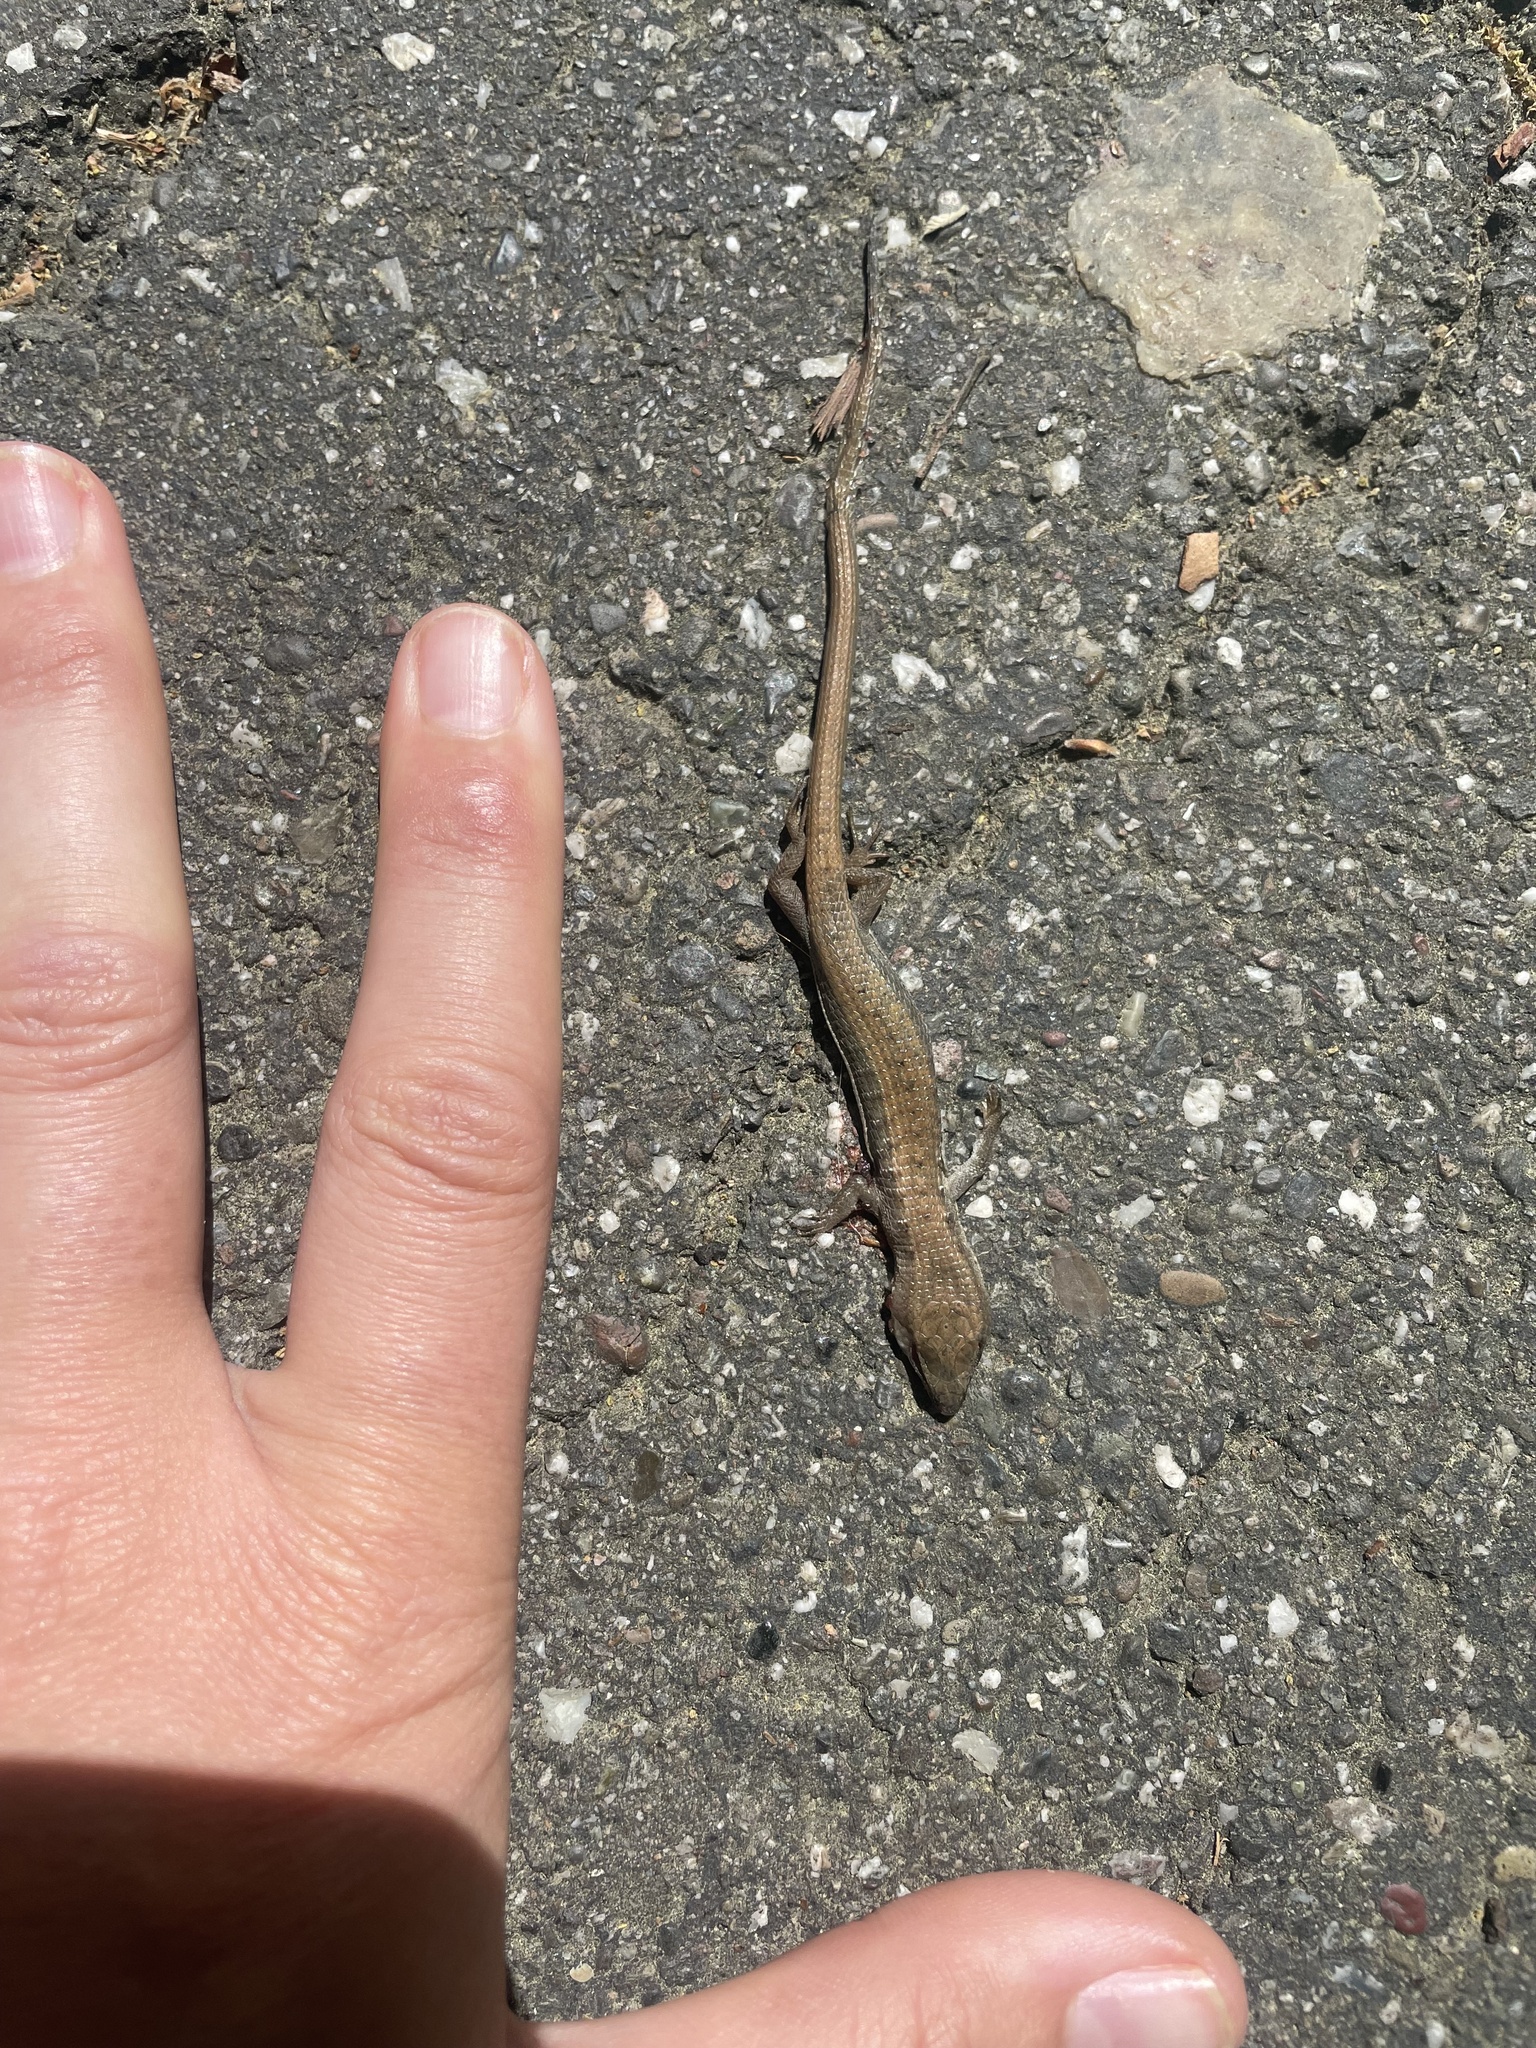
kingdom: Animalia
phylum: Chordata
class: Squamata
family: Anguidae
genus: Elgaria
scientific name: Elgaria multicarinata
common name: Southern alligator lizard
